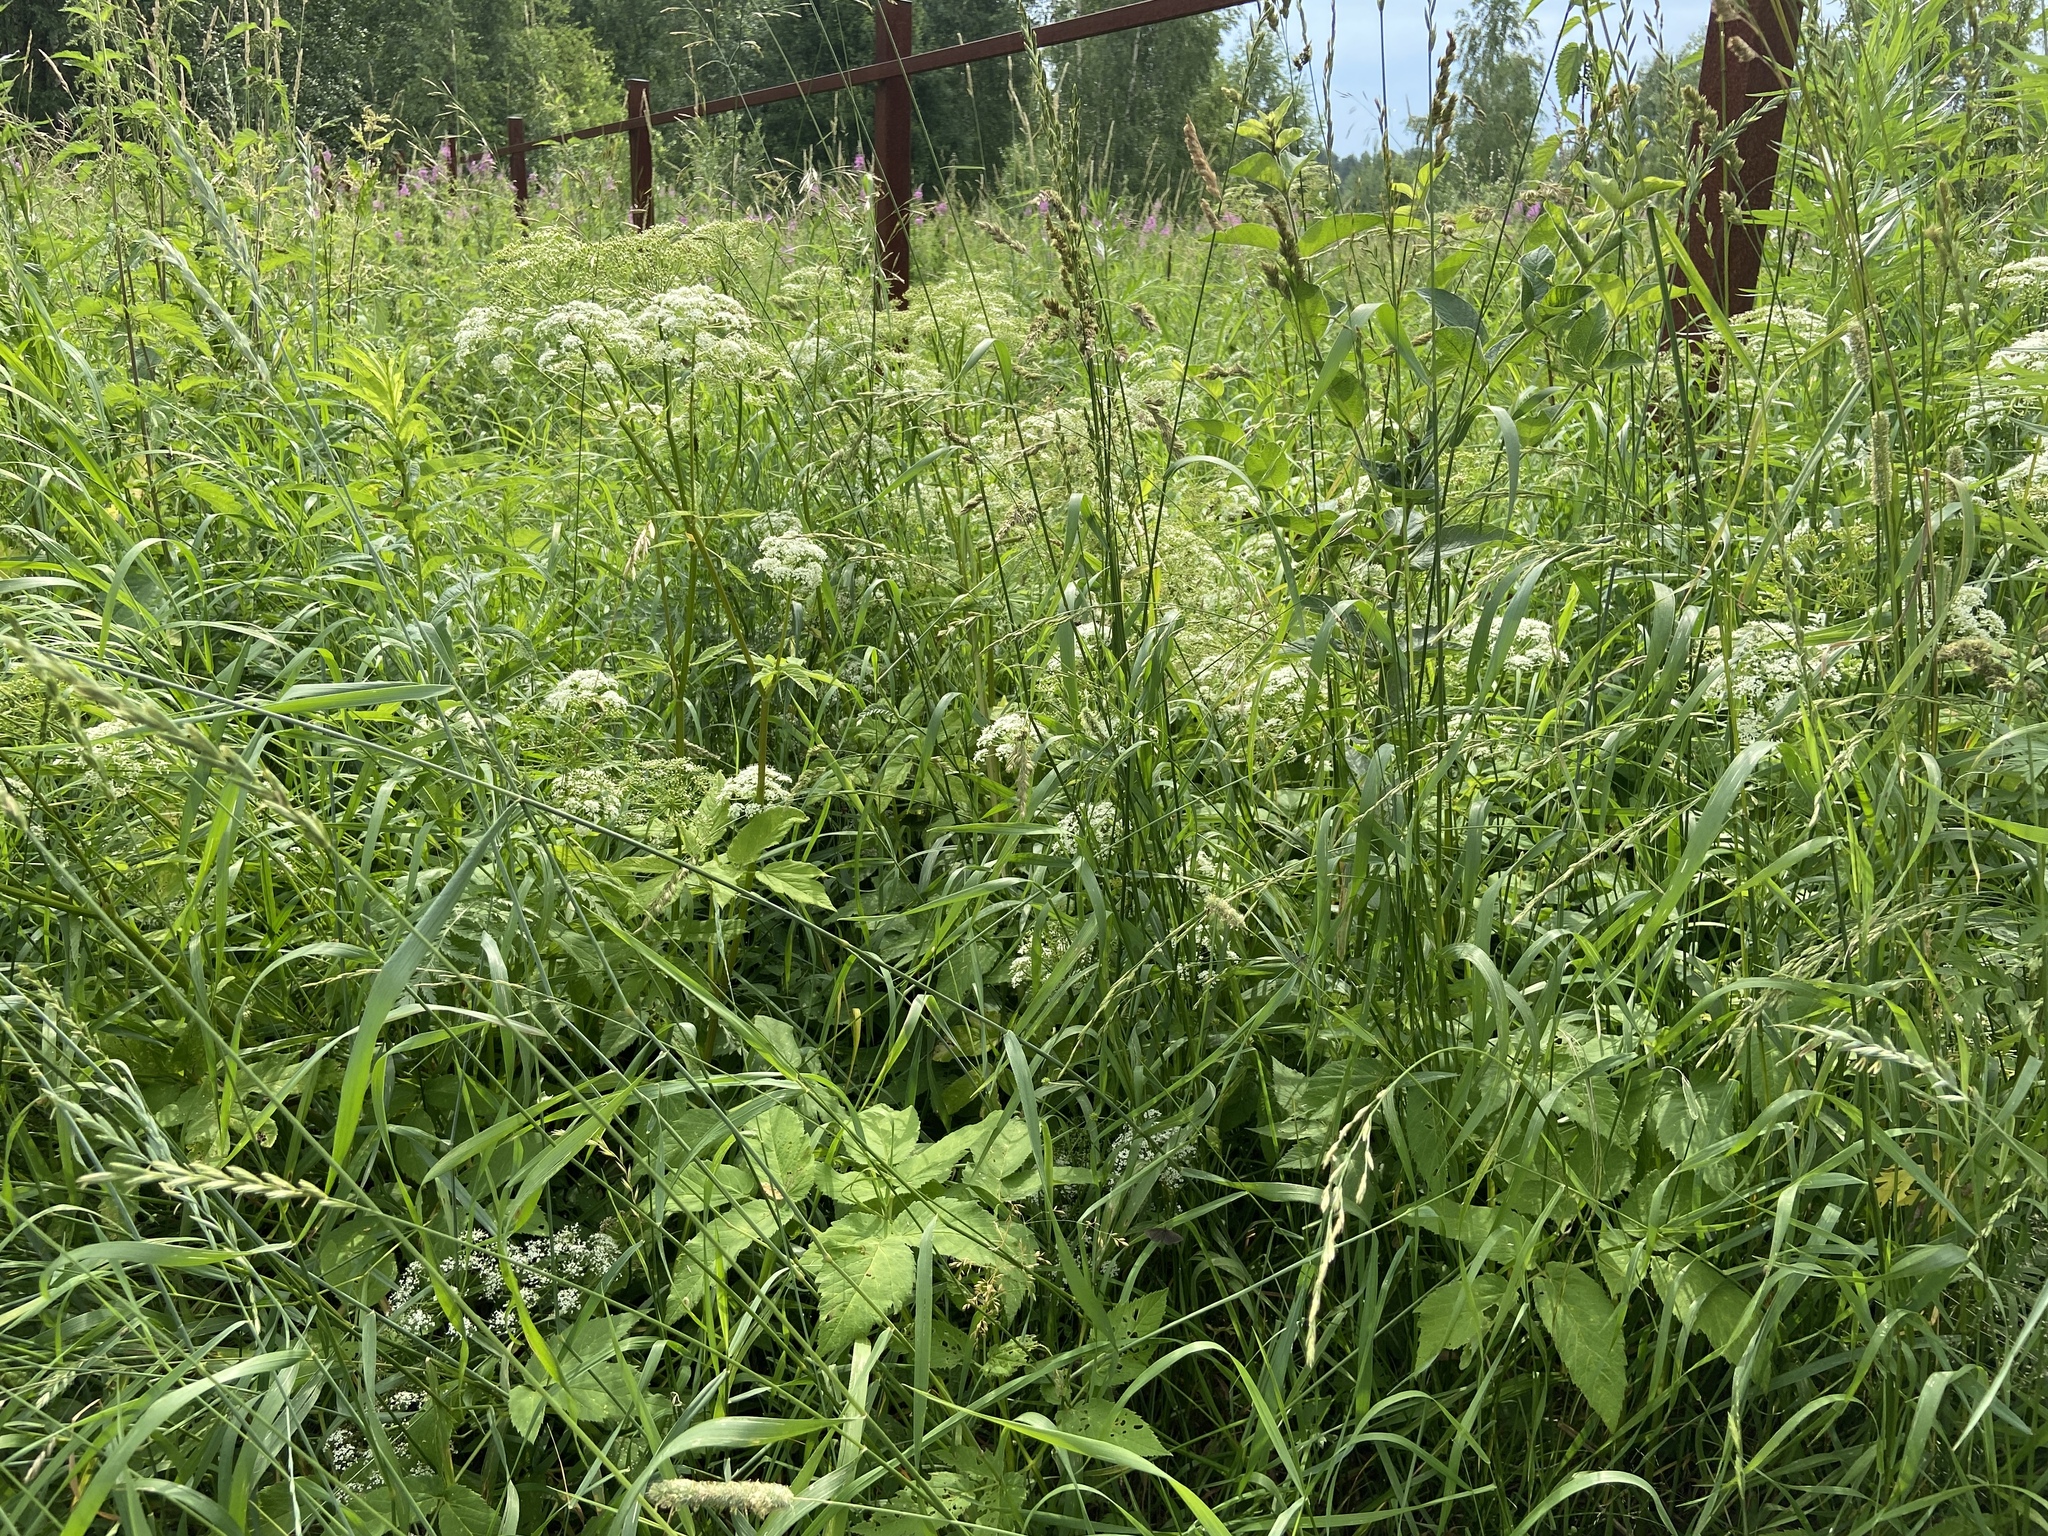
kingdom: Plantae
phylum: Tracheophyta
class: Magnoliopsida
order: Apiales
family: Apiaceae
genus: Aegopodium
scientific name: Aegopodium podagraria
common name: Ground-elder
